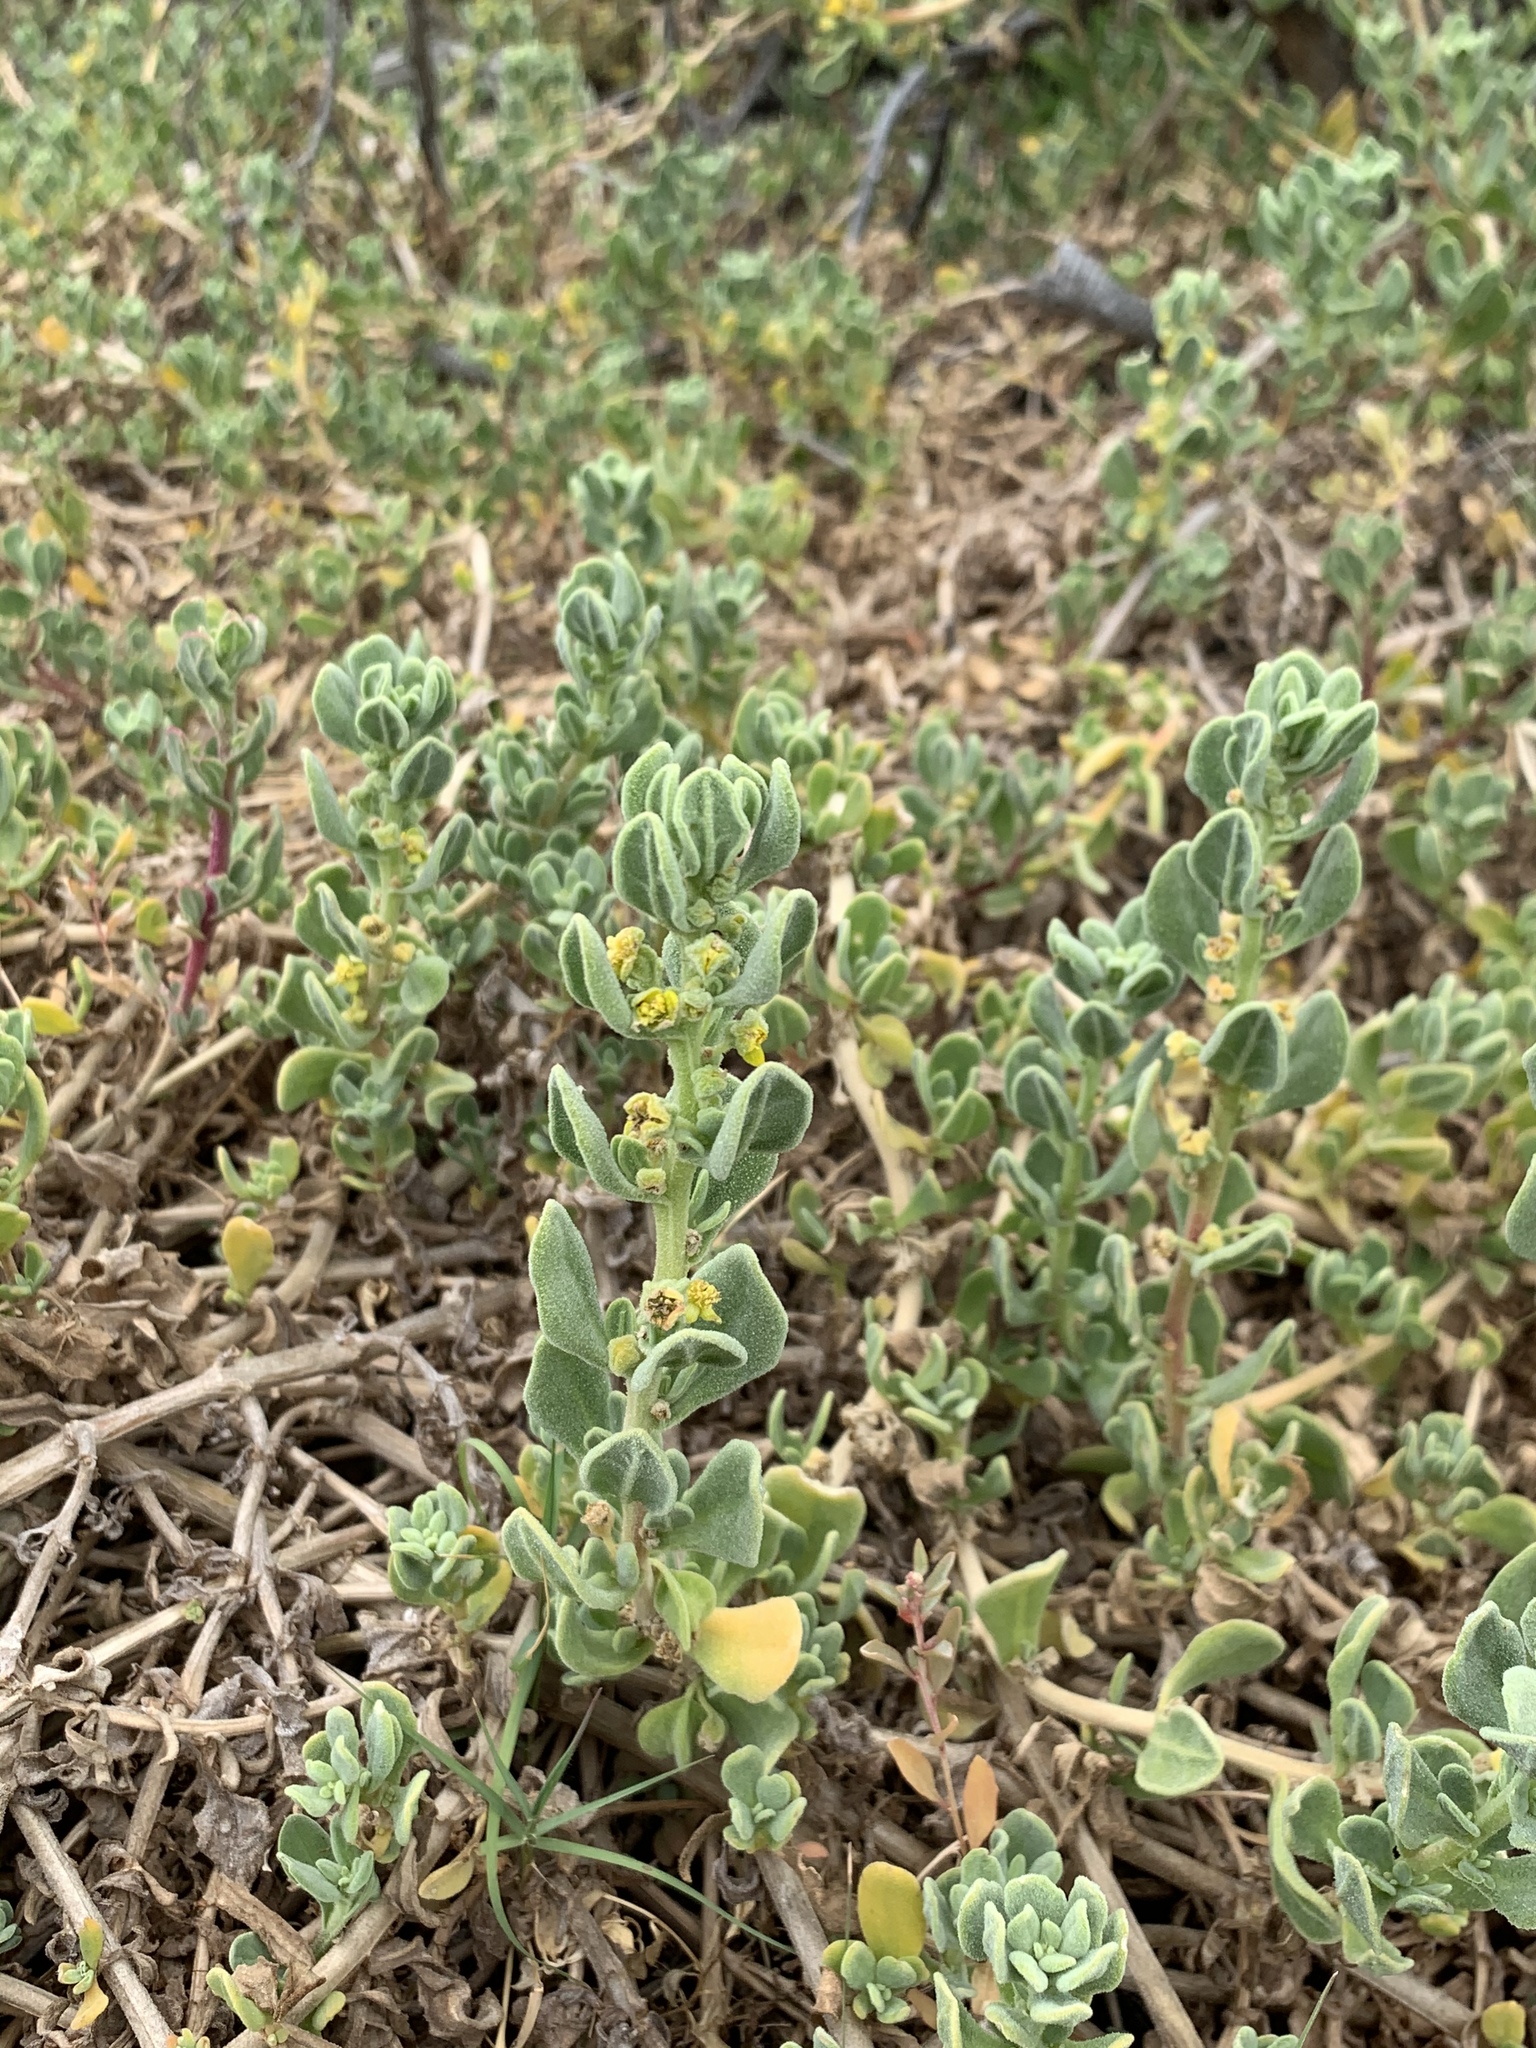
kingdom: Plantae
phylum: Tracheophyta
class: Magnoliopsida
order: Caryophyllales
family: Aizoaceae
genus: Tetragonia
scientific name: Tetragonia decumbens
